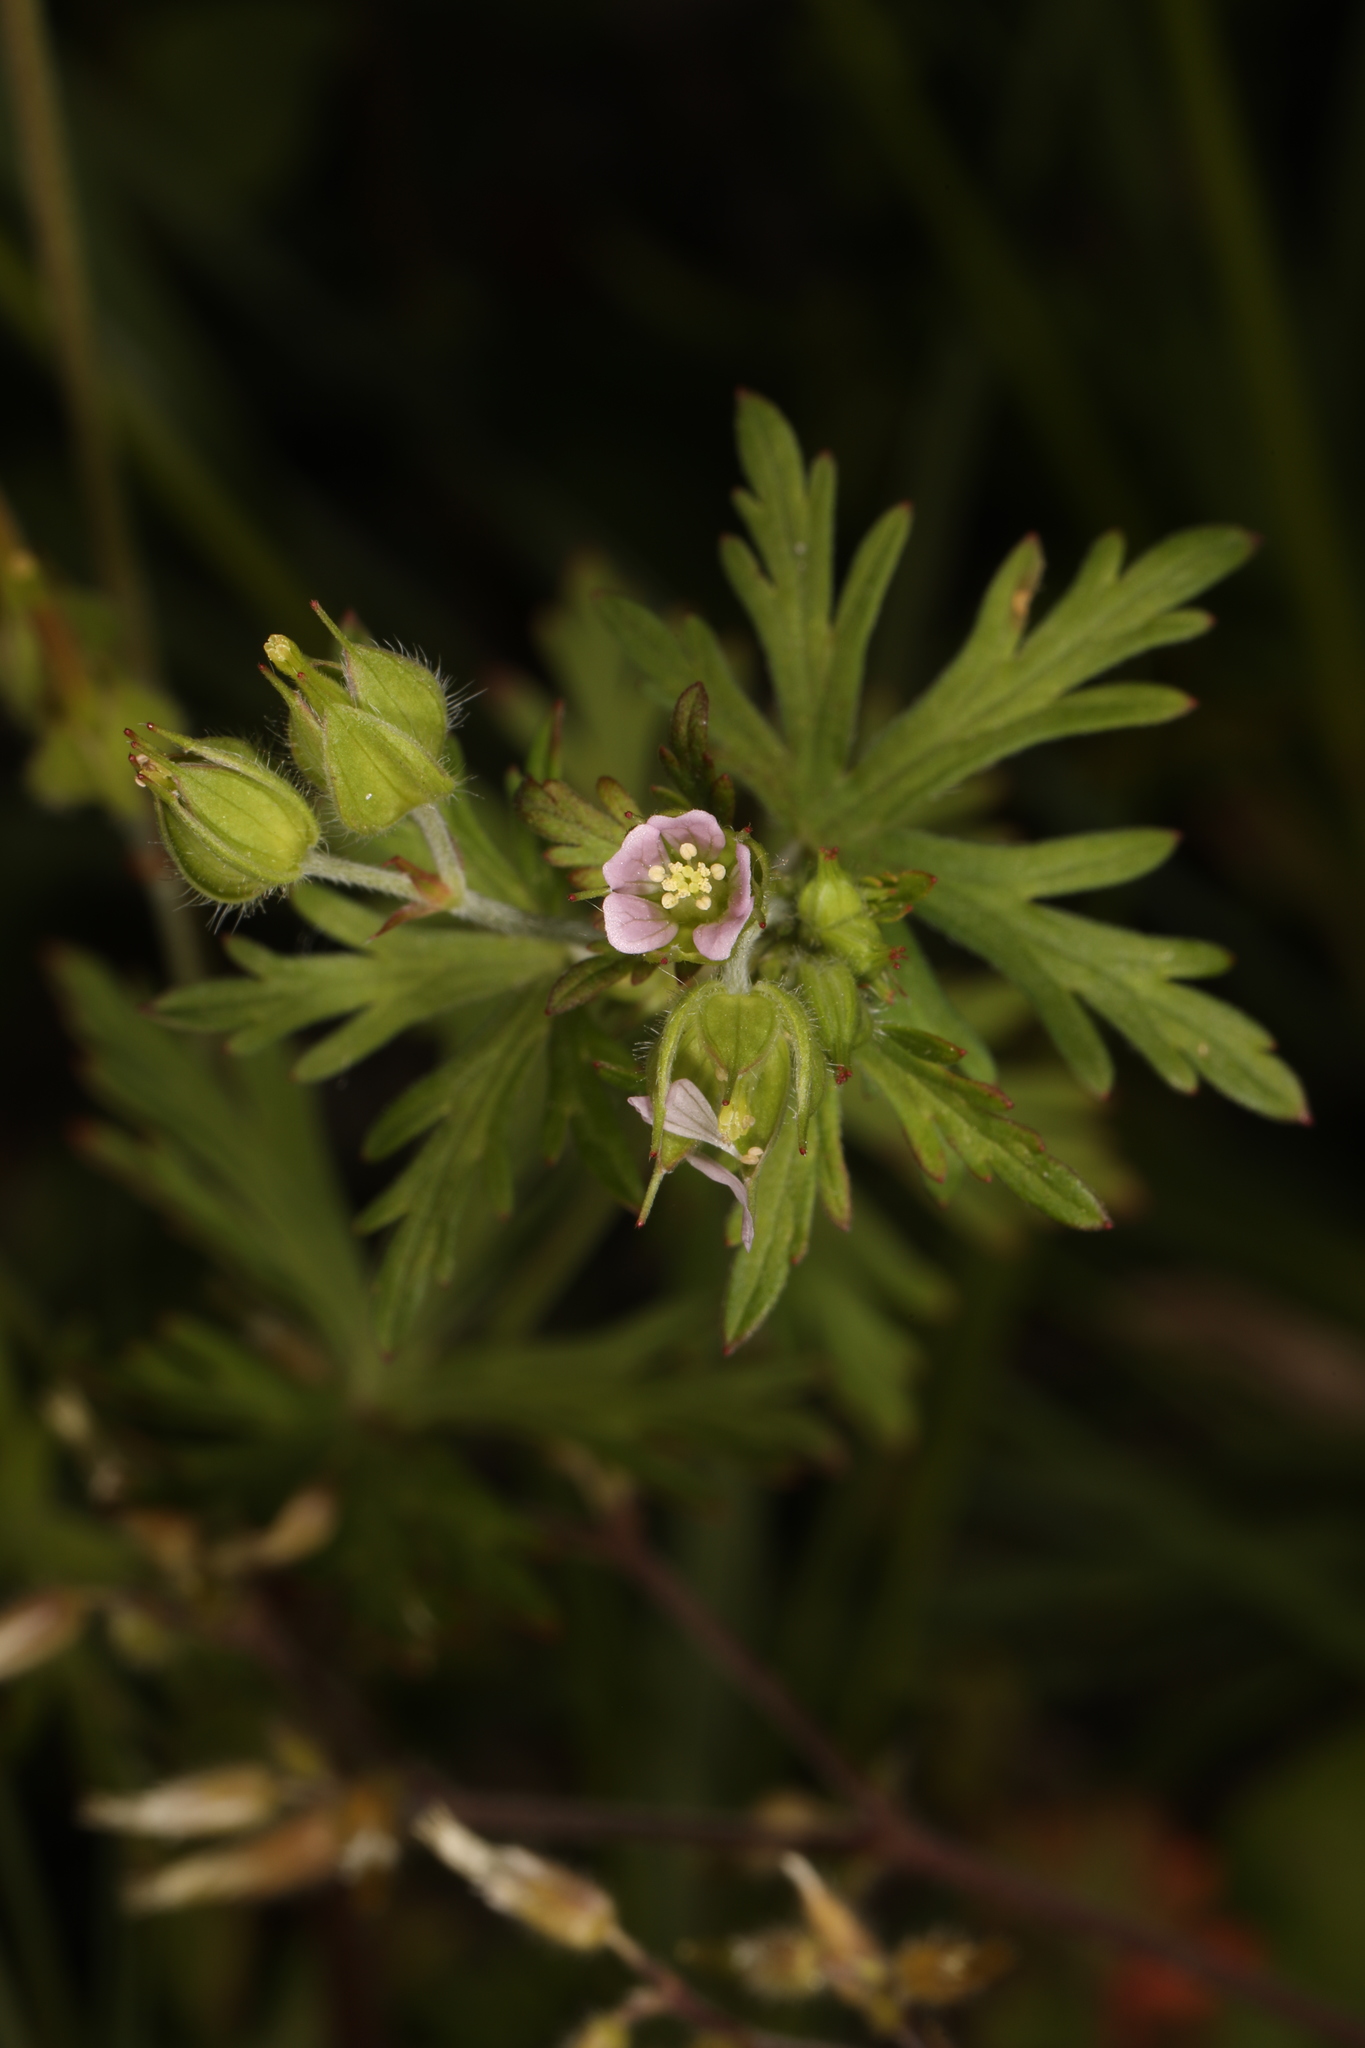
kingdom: Plantae
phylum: Tracheophyta
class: Magnoliopsida
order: Geraniales
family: Geraniaceae
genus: Geranium
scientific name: Geranium carolinianum
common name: Carolina crane's-bill
